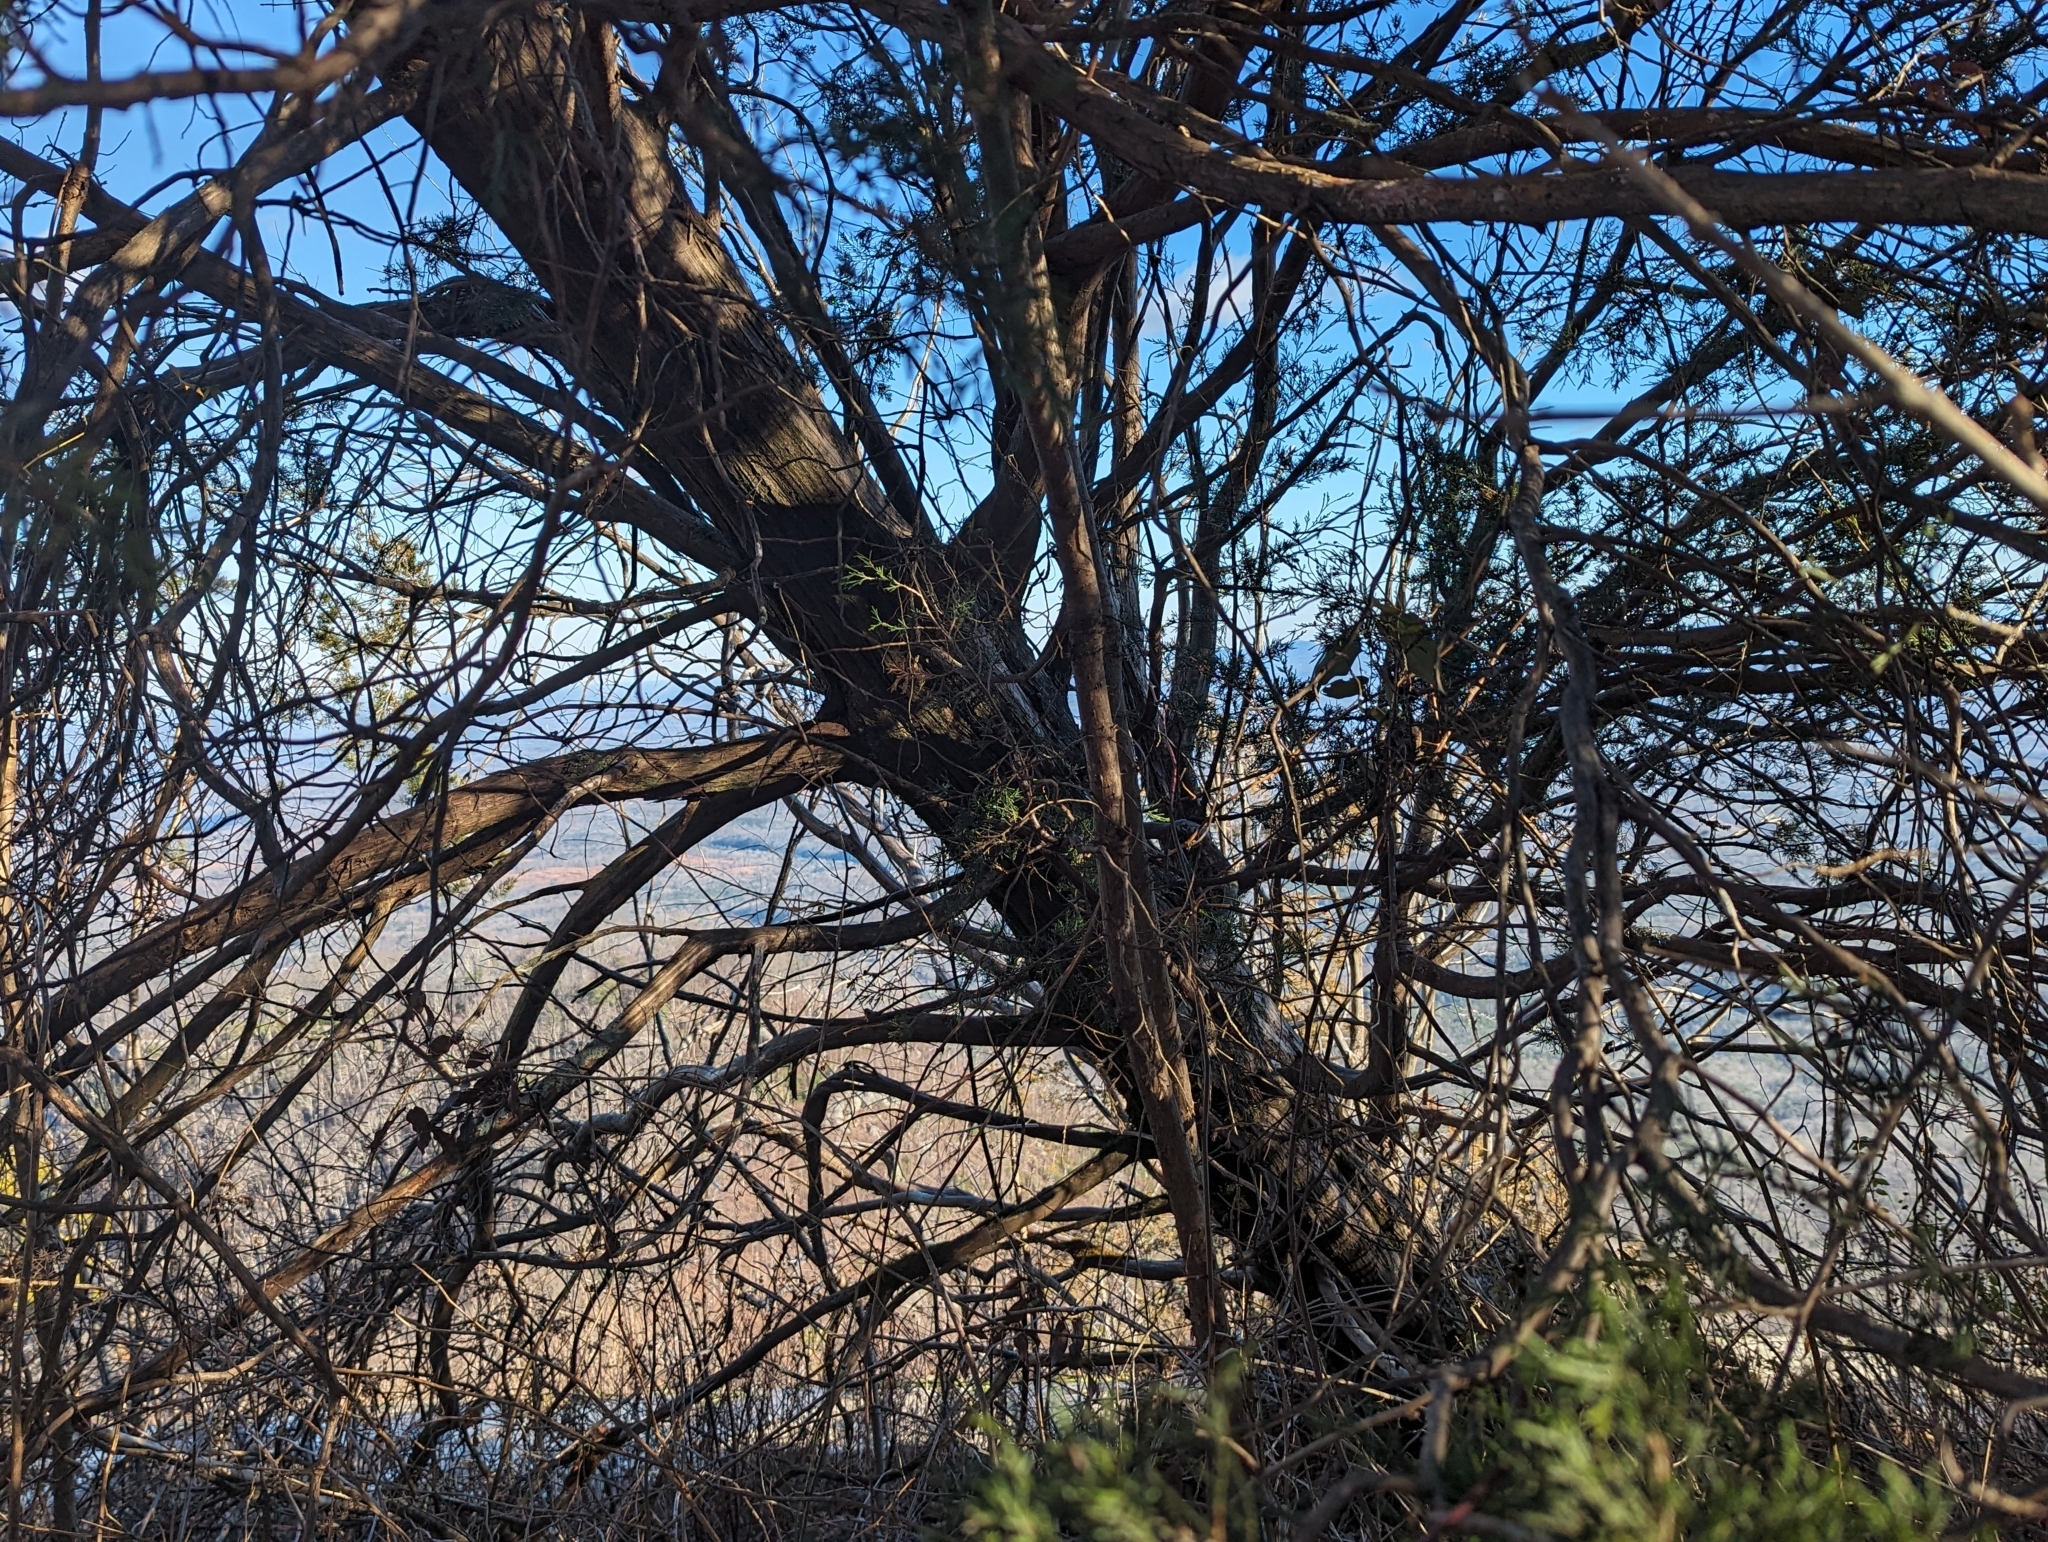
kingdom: Plantae
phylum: Tracheophyta
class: Pinopsida
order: Pinales
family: Cupressaceae
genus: Juniperus
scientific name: Juniperus virginiana
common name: Red juniper
